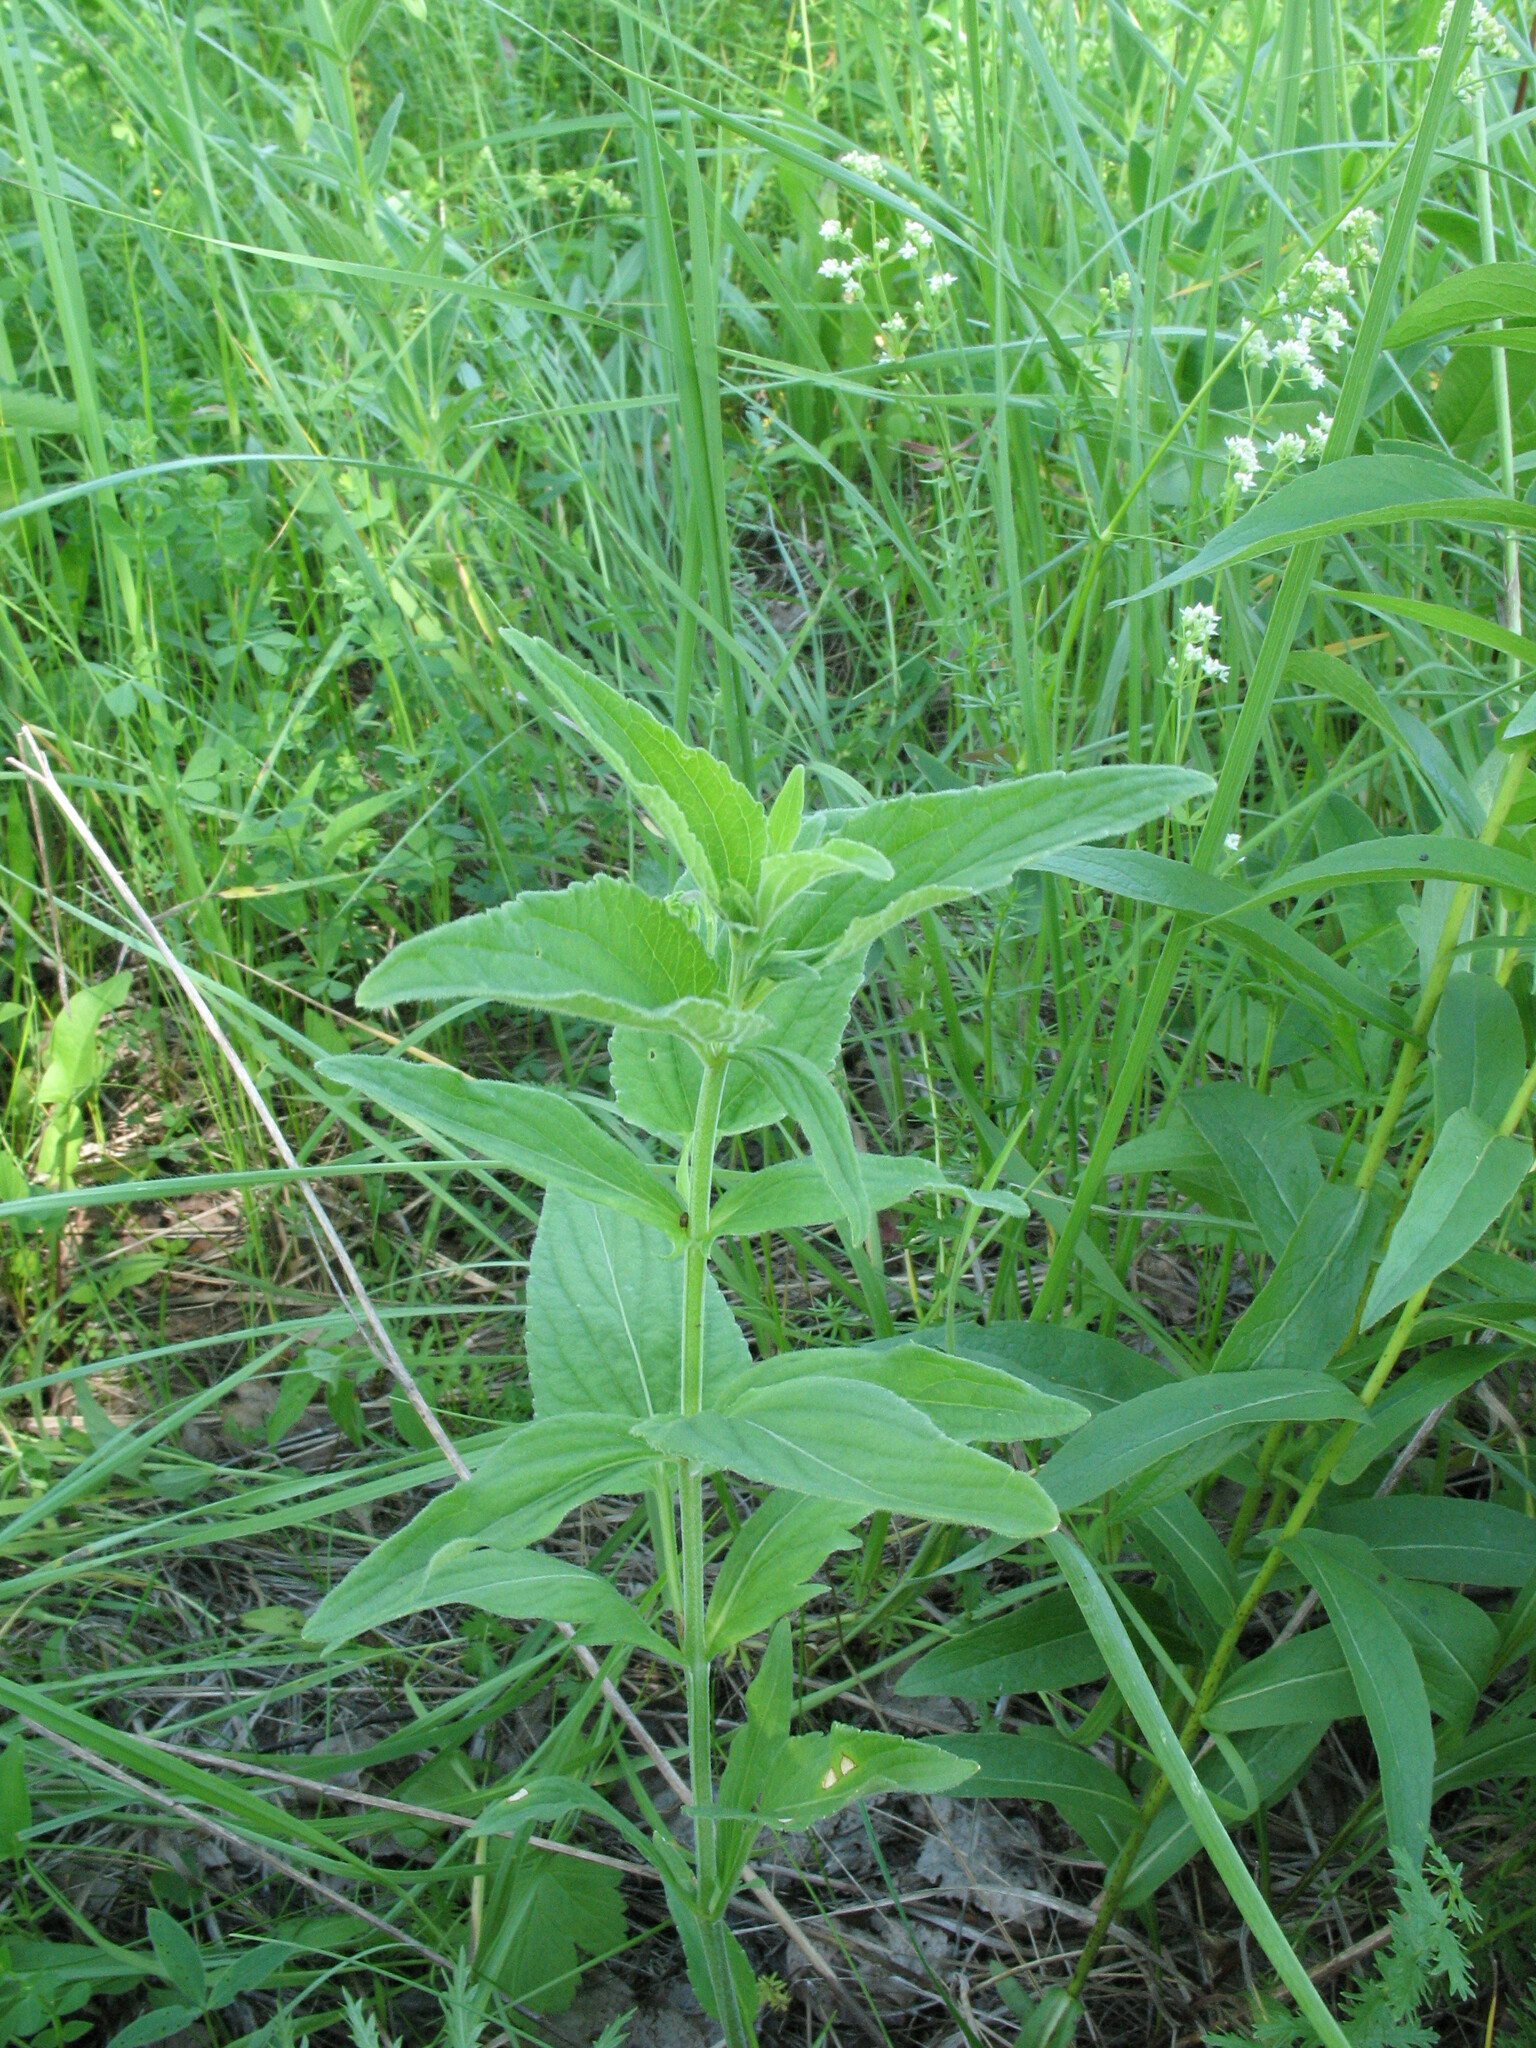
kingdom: Plantae
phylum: Tracheophyta
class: Magnoliopsida
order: Malpighiales
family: Violaceae
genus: Viola
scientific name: Viola elatior
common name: Tall violet
